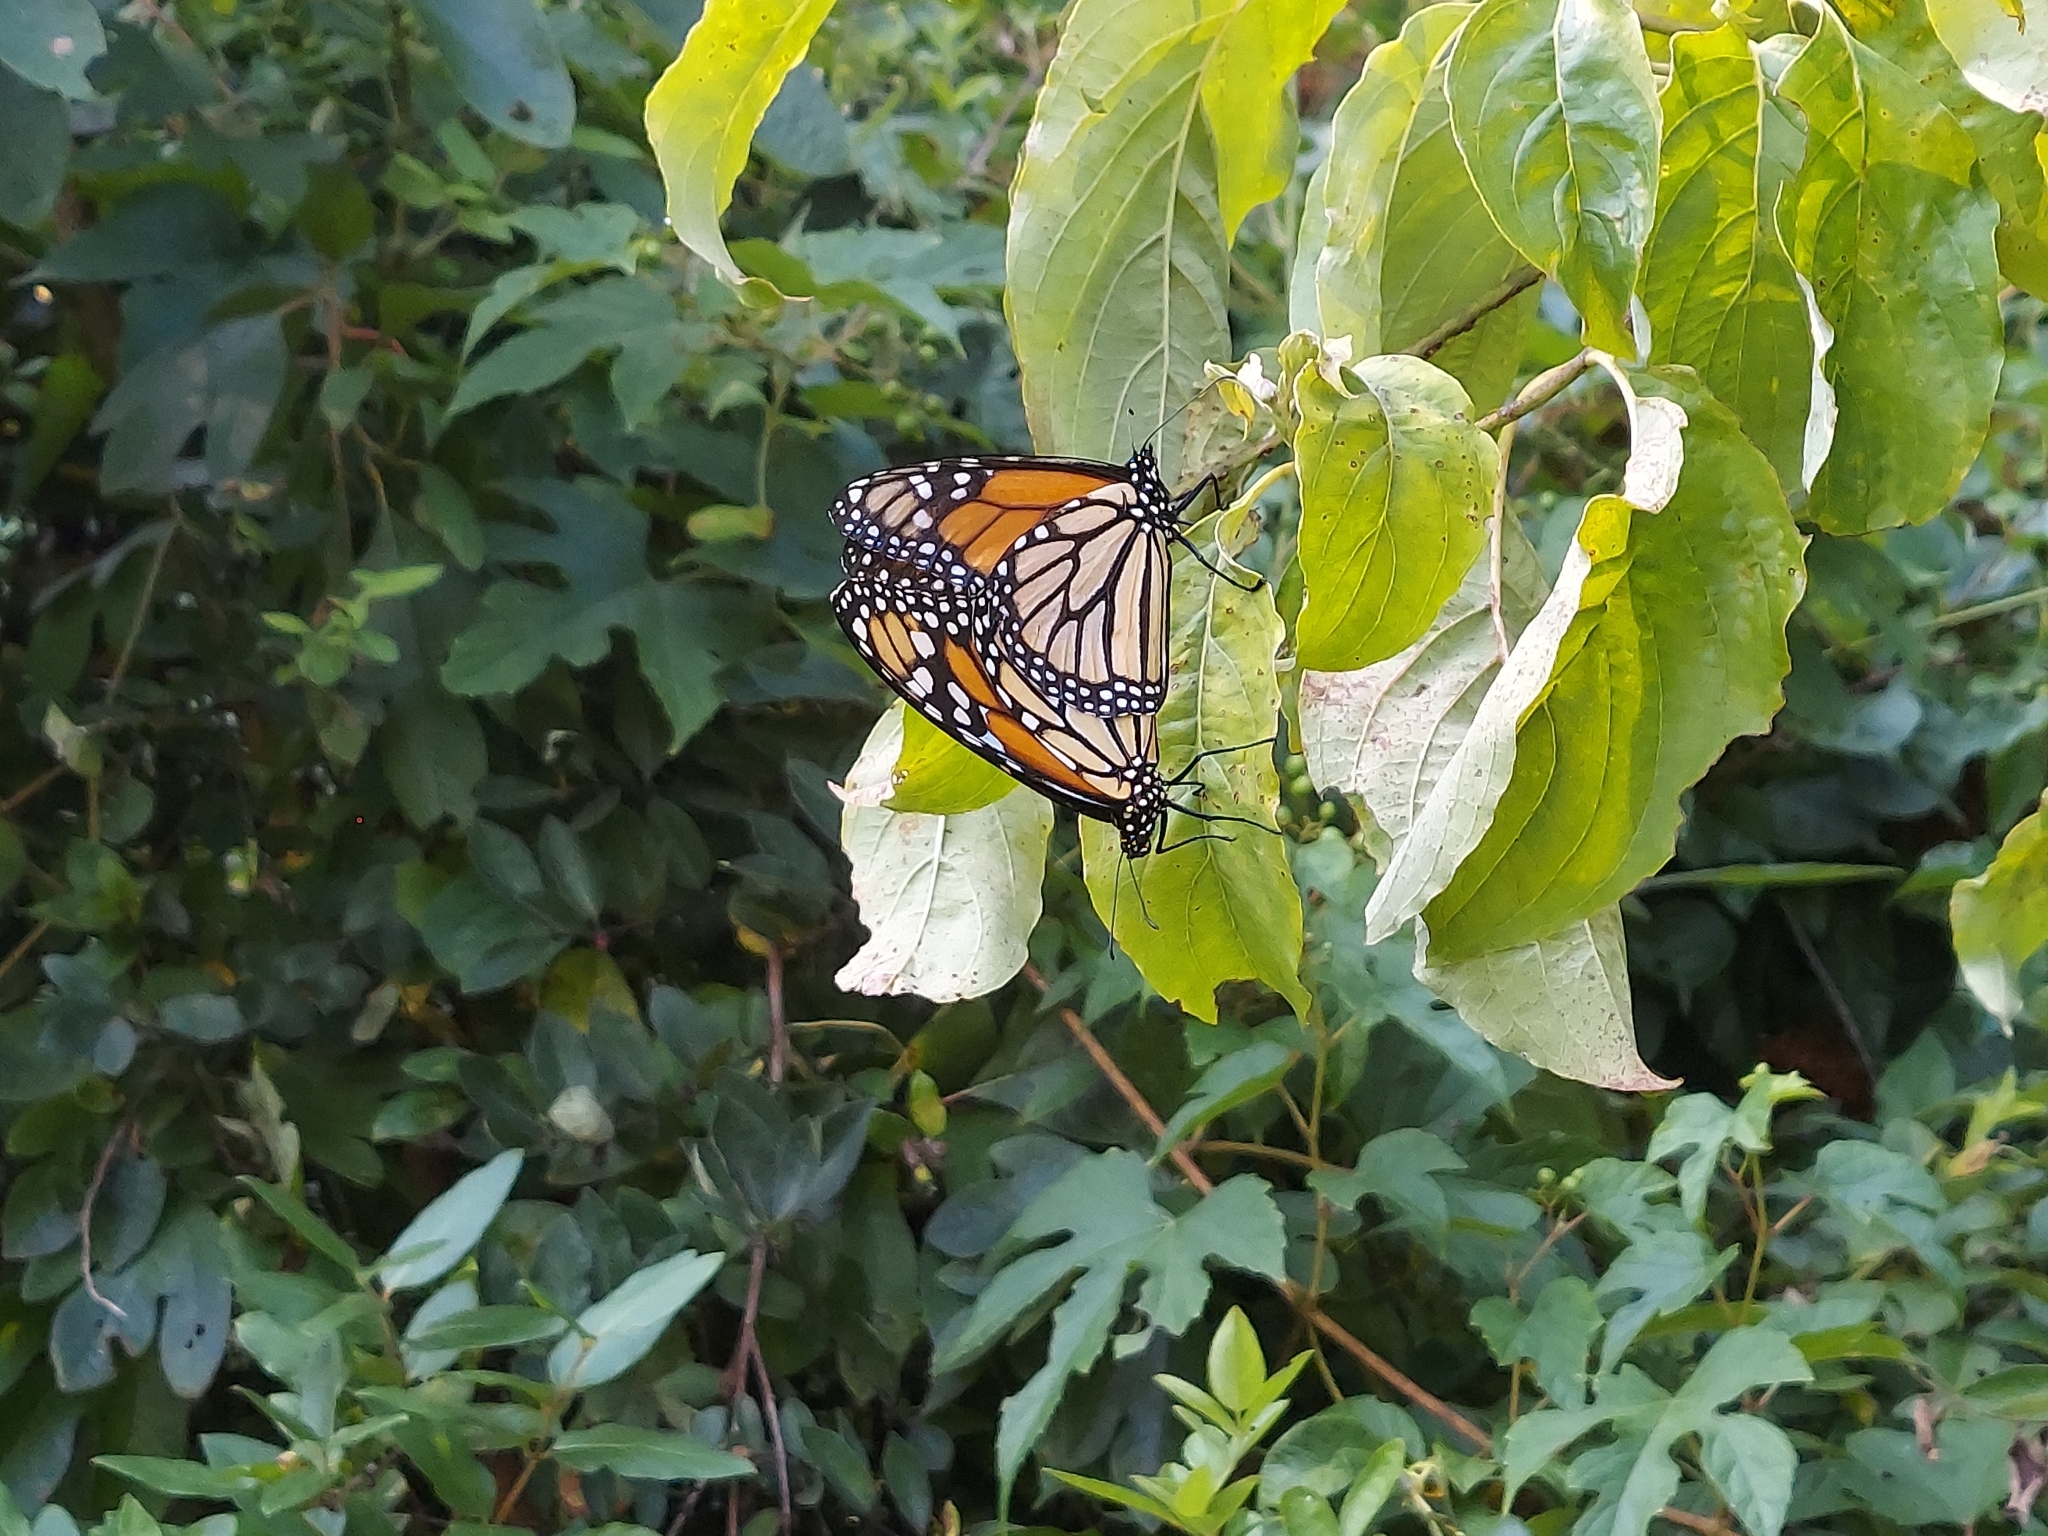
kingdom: Animalia
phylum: Arthropoda
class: Insecta
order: Lepidoptera
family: Nymphalidae
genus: Danaus
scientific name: Danaus plexippus
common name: Monarch
